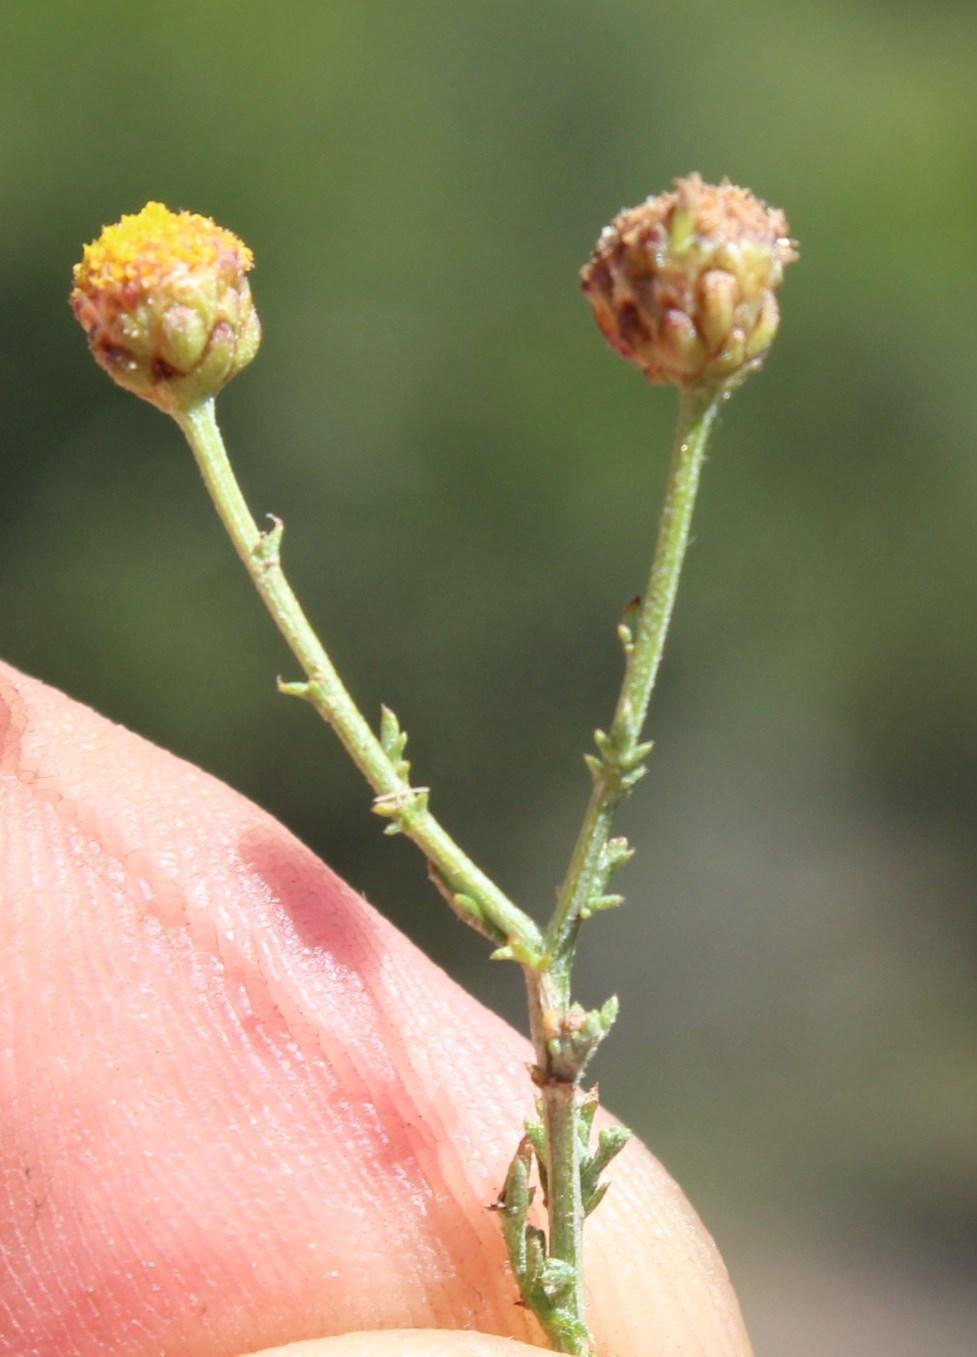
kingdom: Plantae
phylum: Tracheophyta
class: Magnoliopsida
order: Asterales
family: Asteraceae
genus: Pentzia
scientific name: Pentzia incana
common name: African sheepbush
